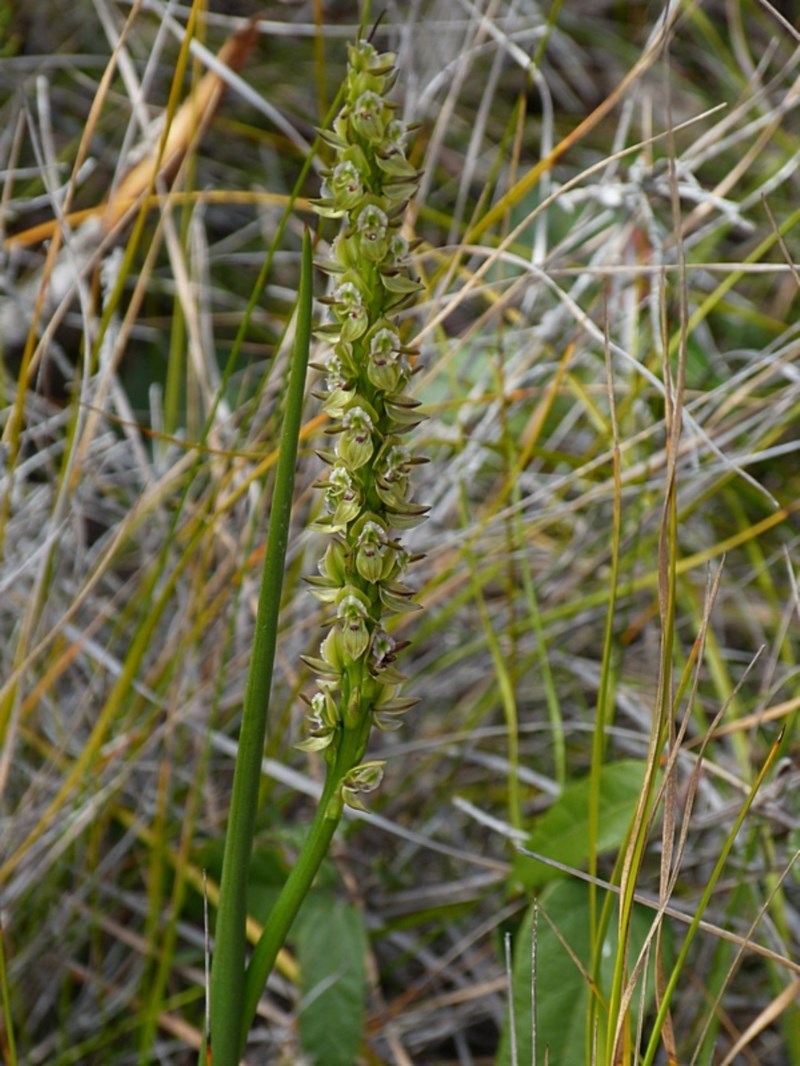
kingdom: Plantae
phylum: Tracheophyta
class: Liliopsida
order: Asparagales
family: Orchidaceae
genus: Prasophyllum
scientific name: Prasophyllum elatum
